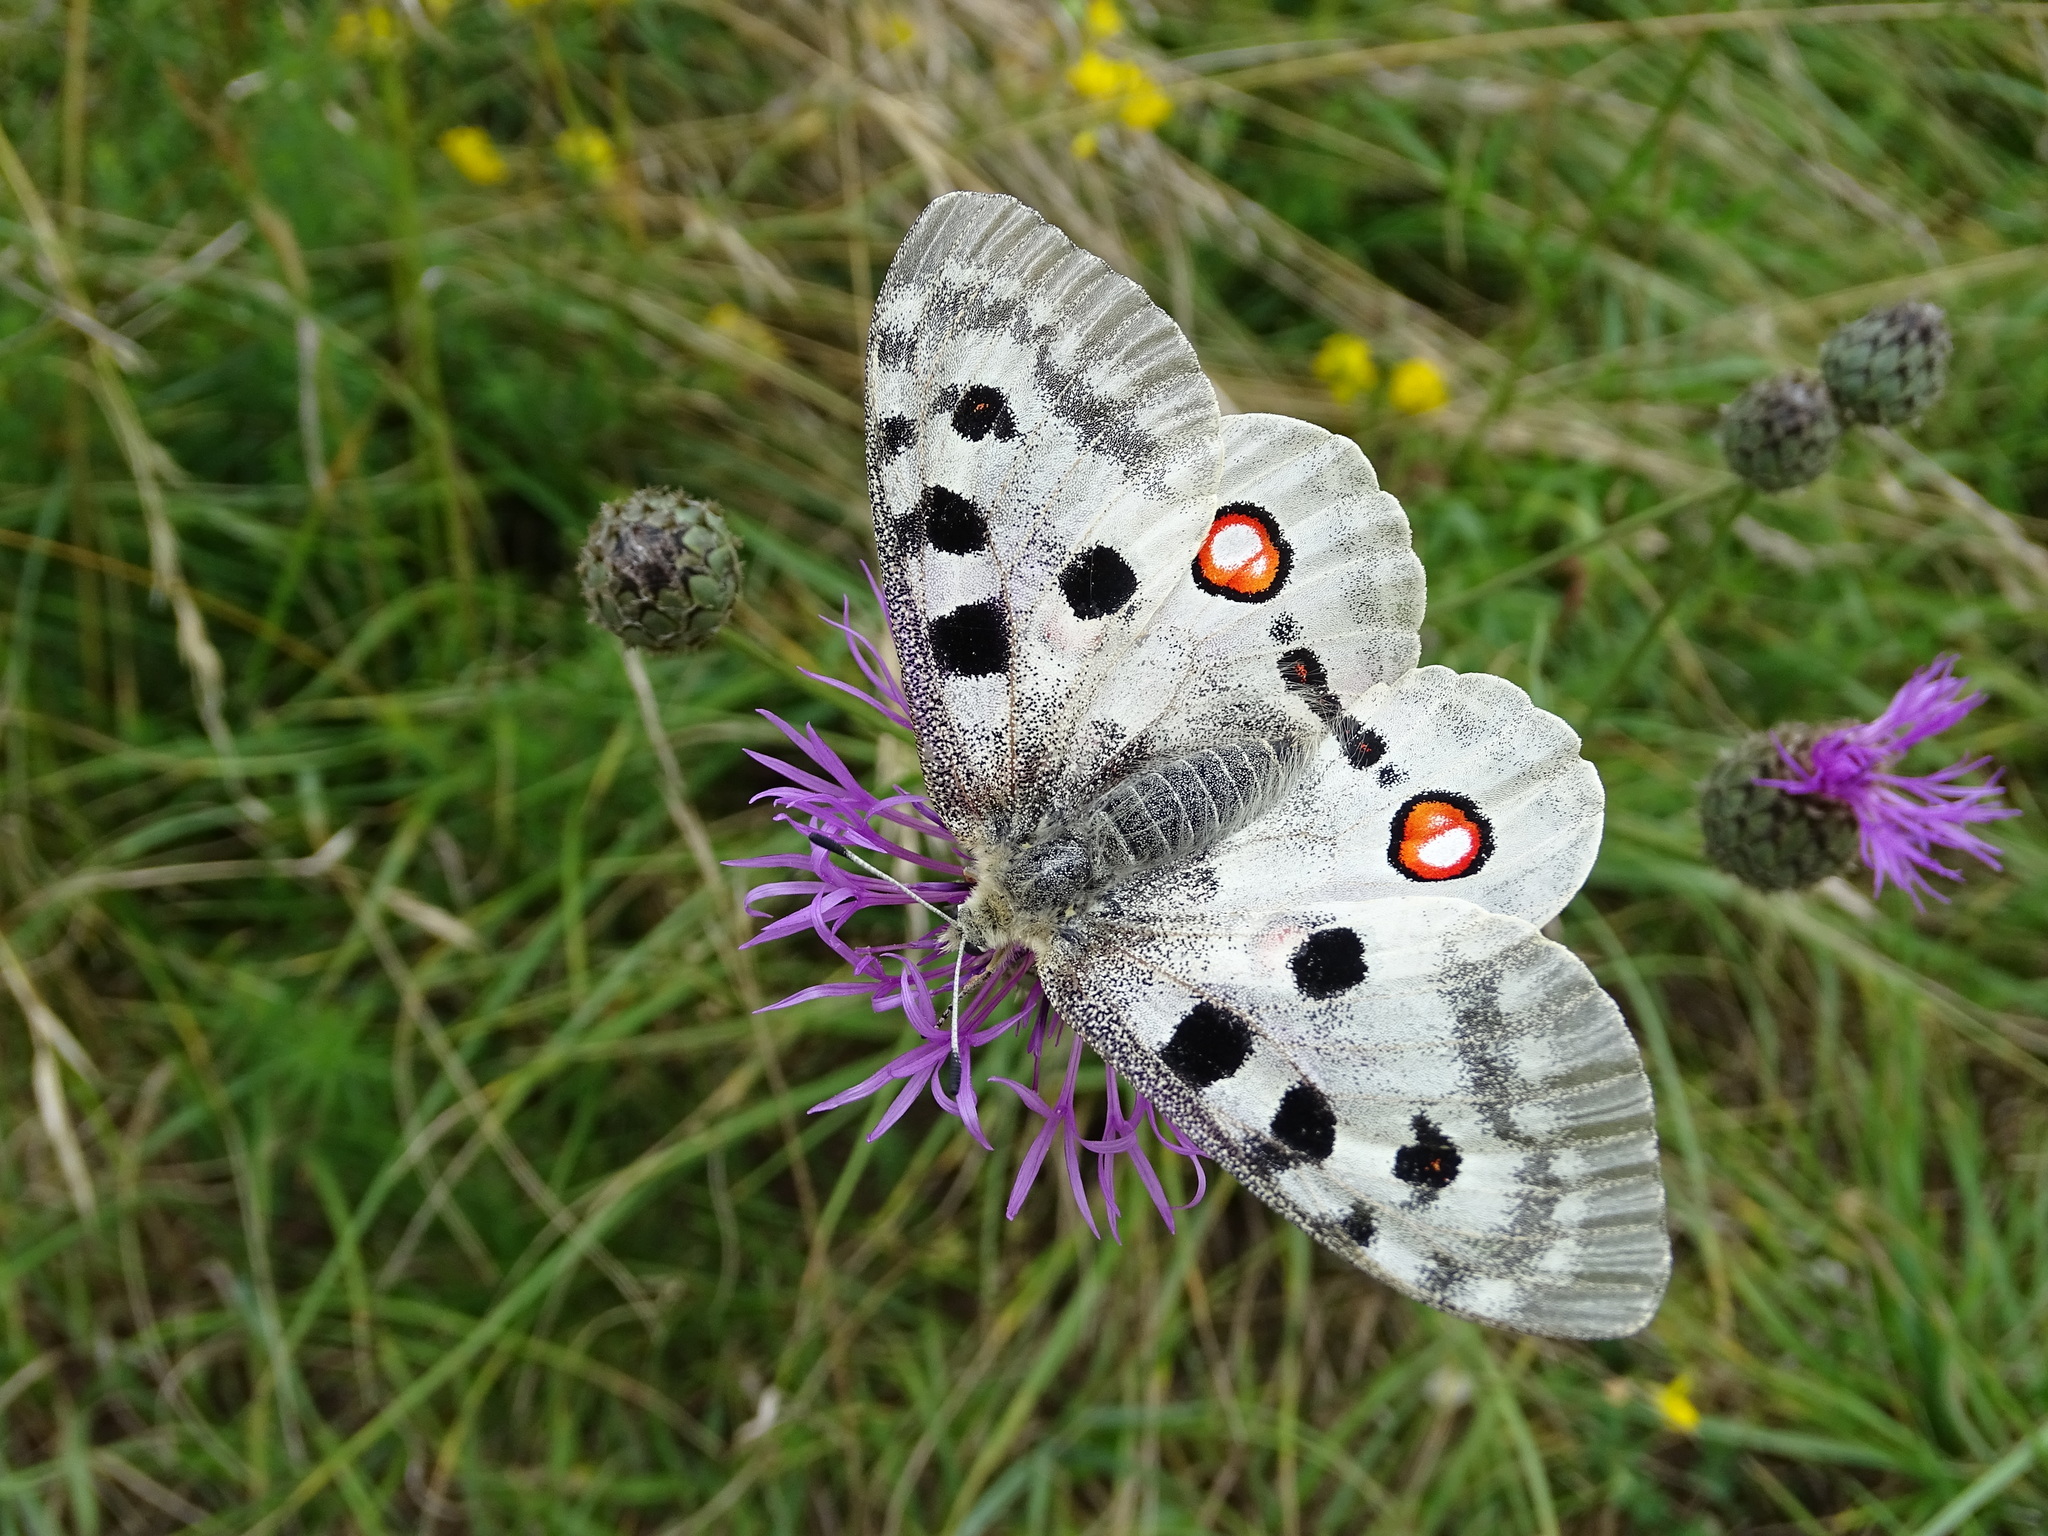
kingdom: Animalia
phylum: Arthropoda
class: Insecta
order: Lepidoptera
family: Papilionidae
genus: Parnassius
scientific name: Parnassius apollo
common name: Apollo
